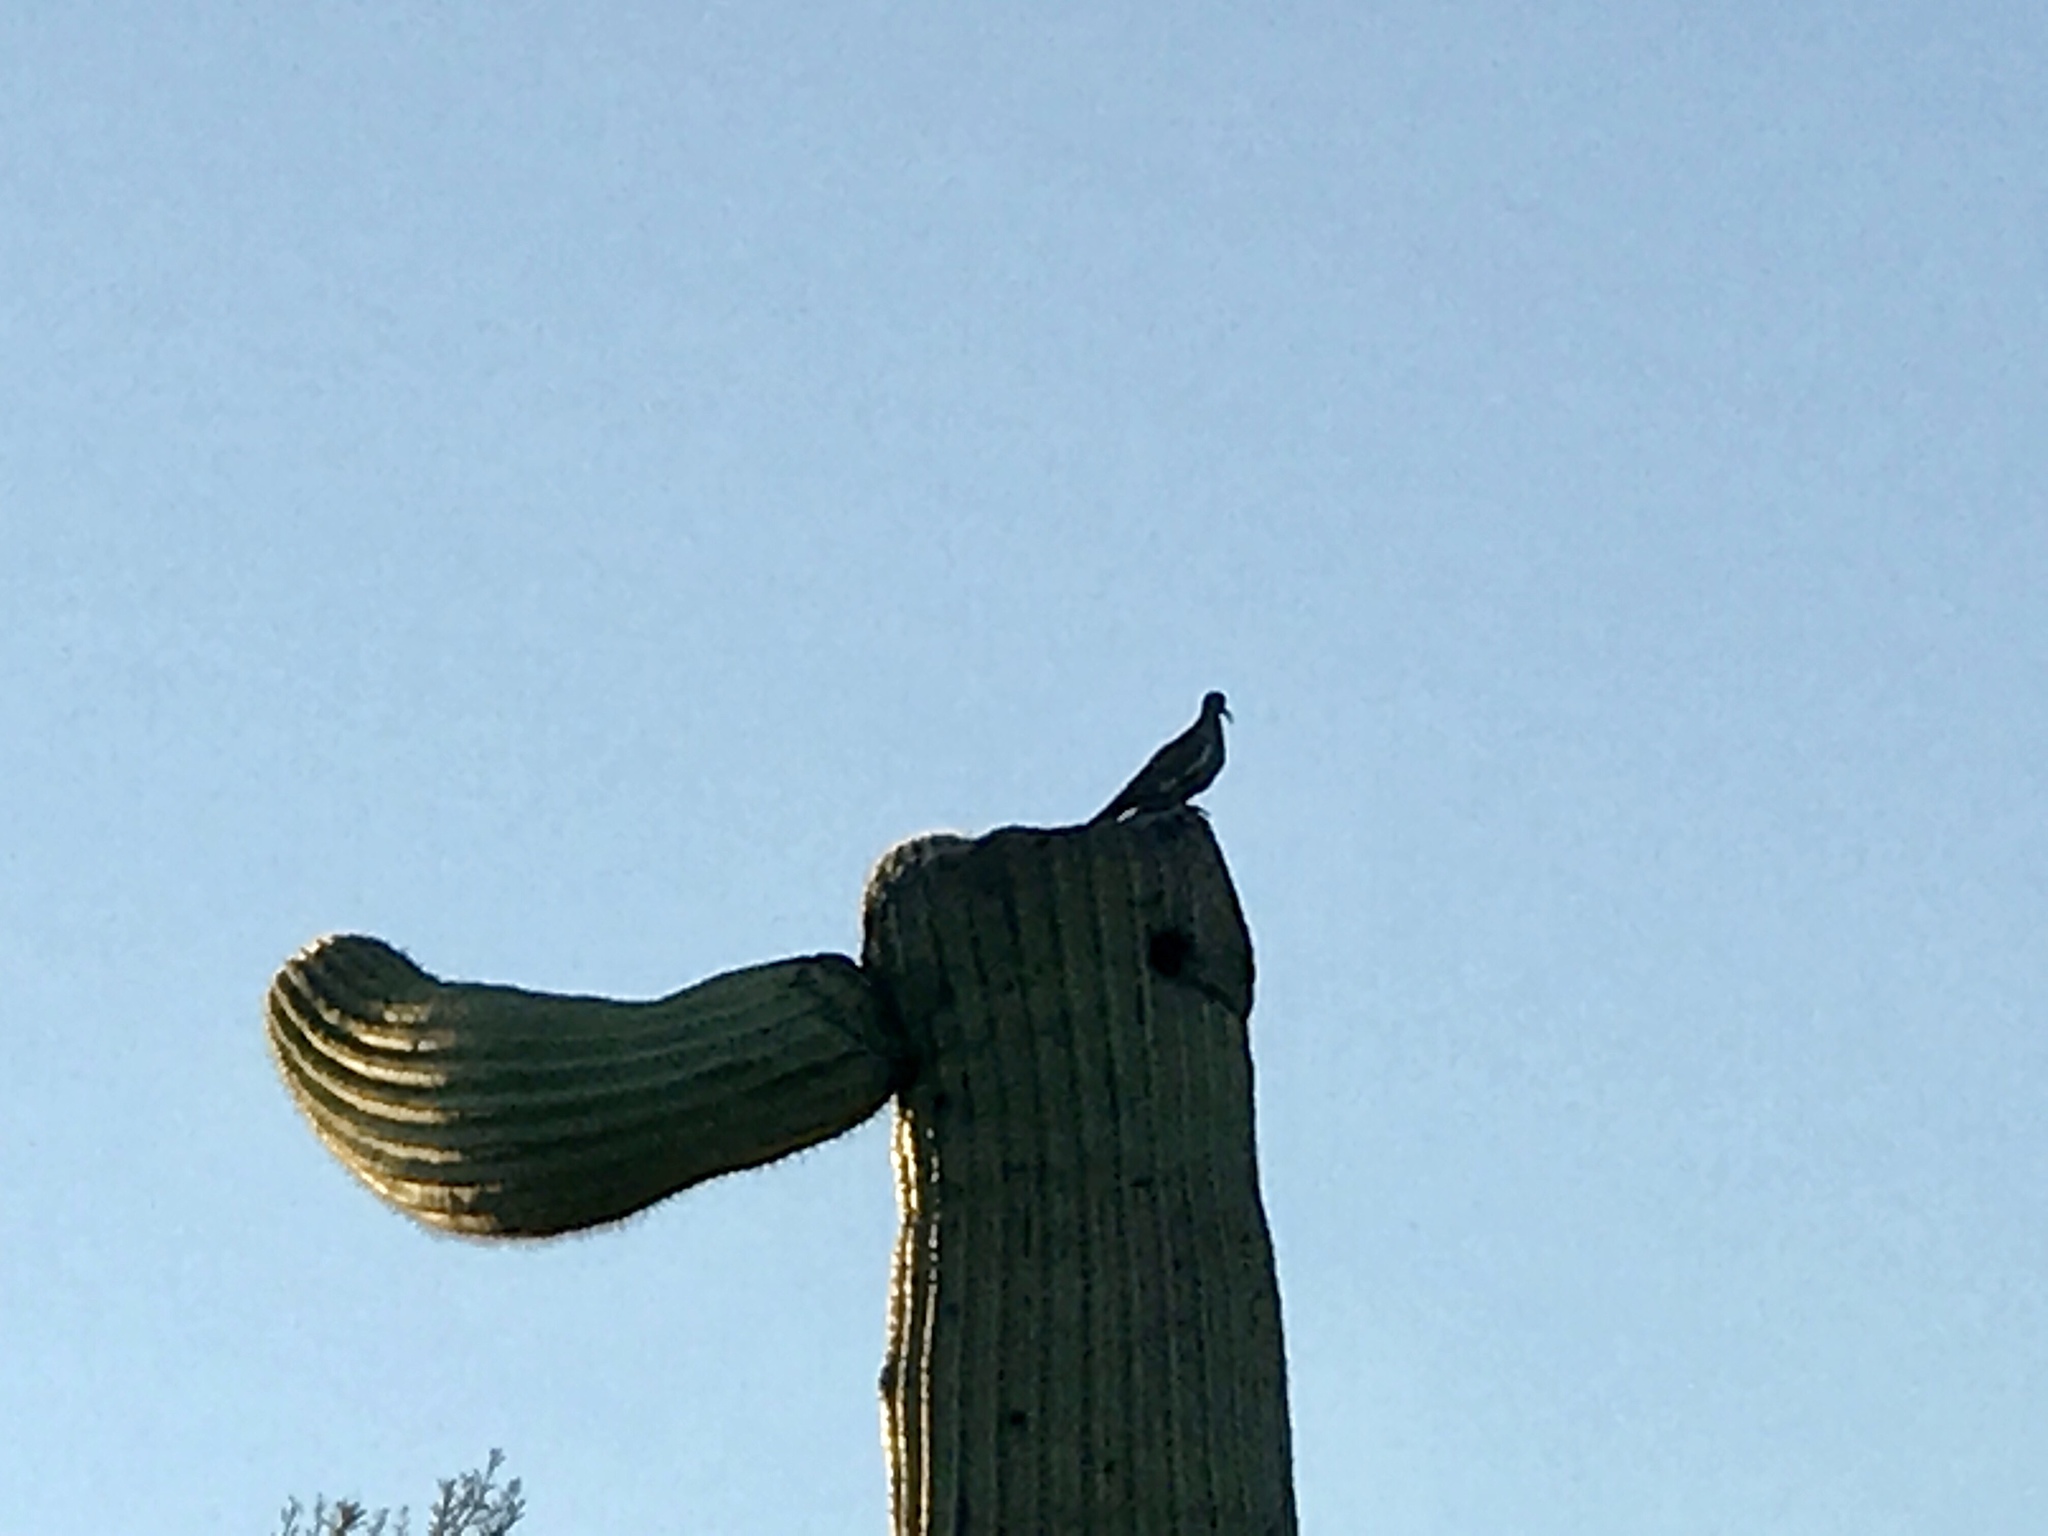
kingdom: Animalia
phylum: Chordata
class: Aves
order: Columbiformes
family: Columbidae
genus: Zenaida
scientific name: Zenaida asiatica
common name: White-winged dove
